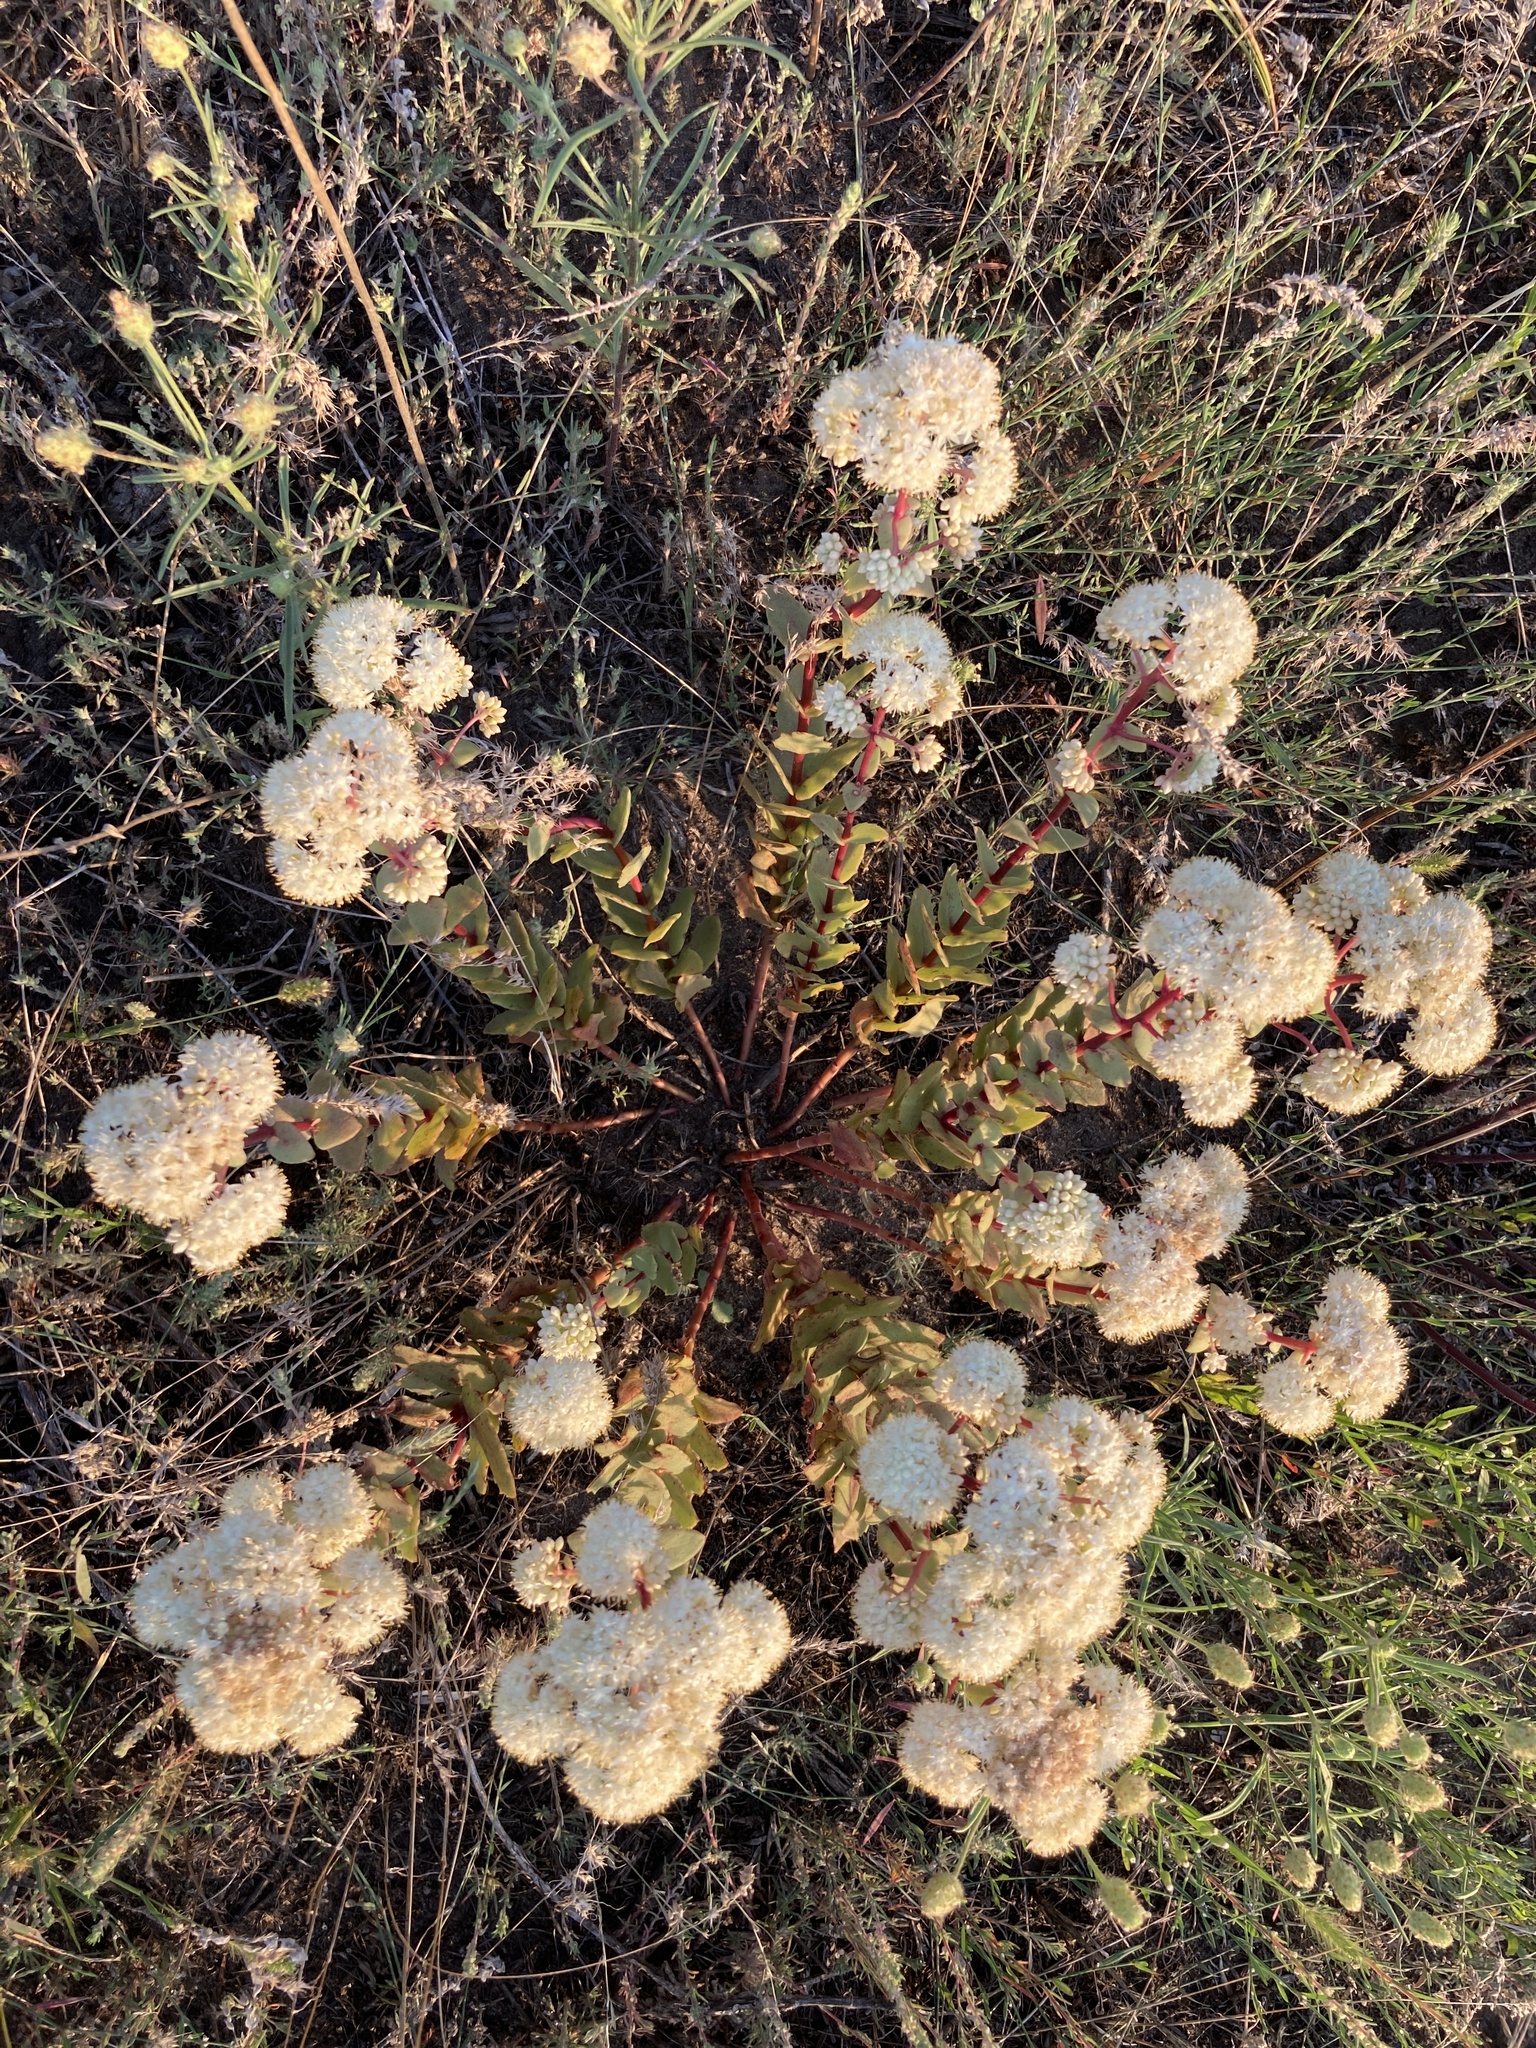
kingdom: Plantae
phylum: Tracheophyta
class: Magnoliopsida
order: Saxifragales
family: Crassulaceae
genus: Hylotelephium
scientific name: Hylotelephium maximum
